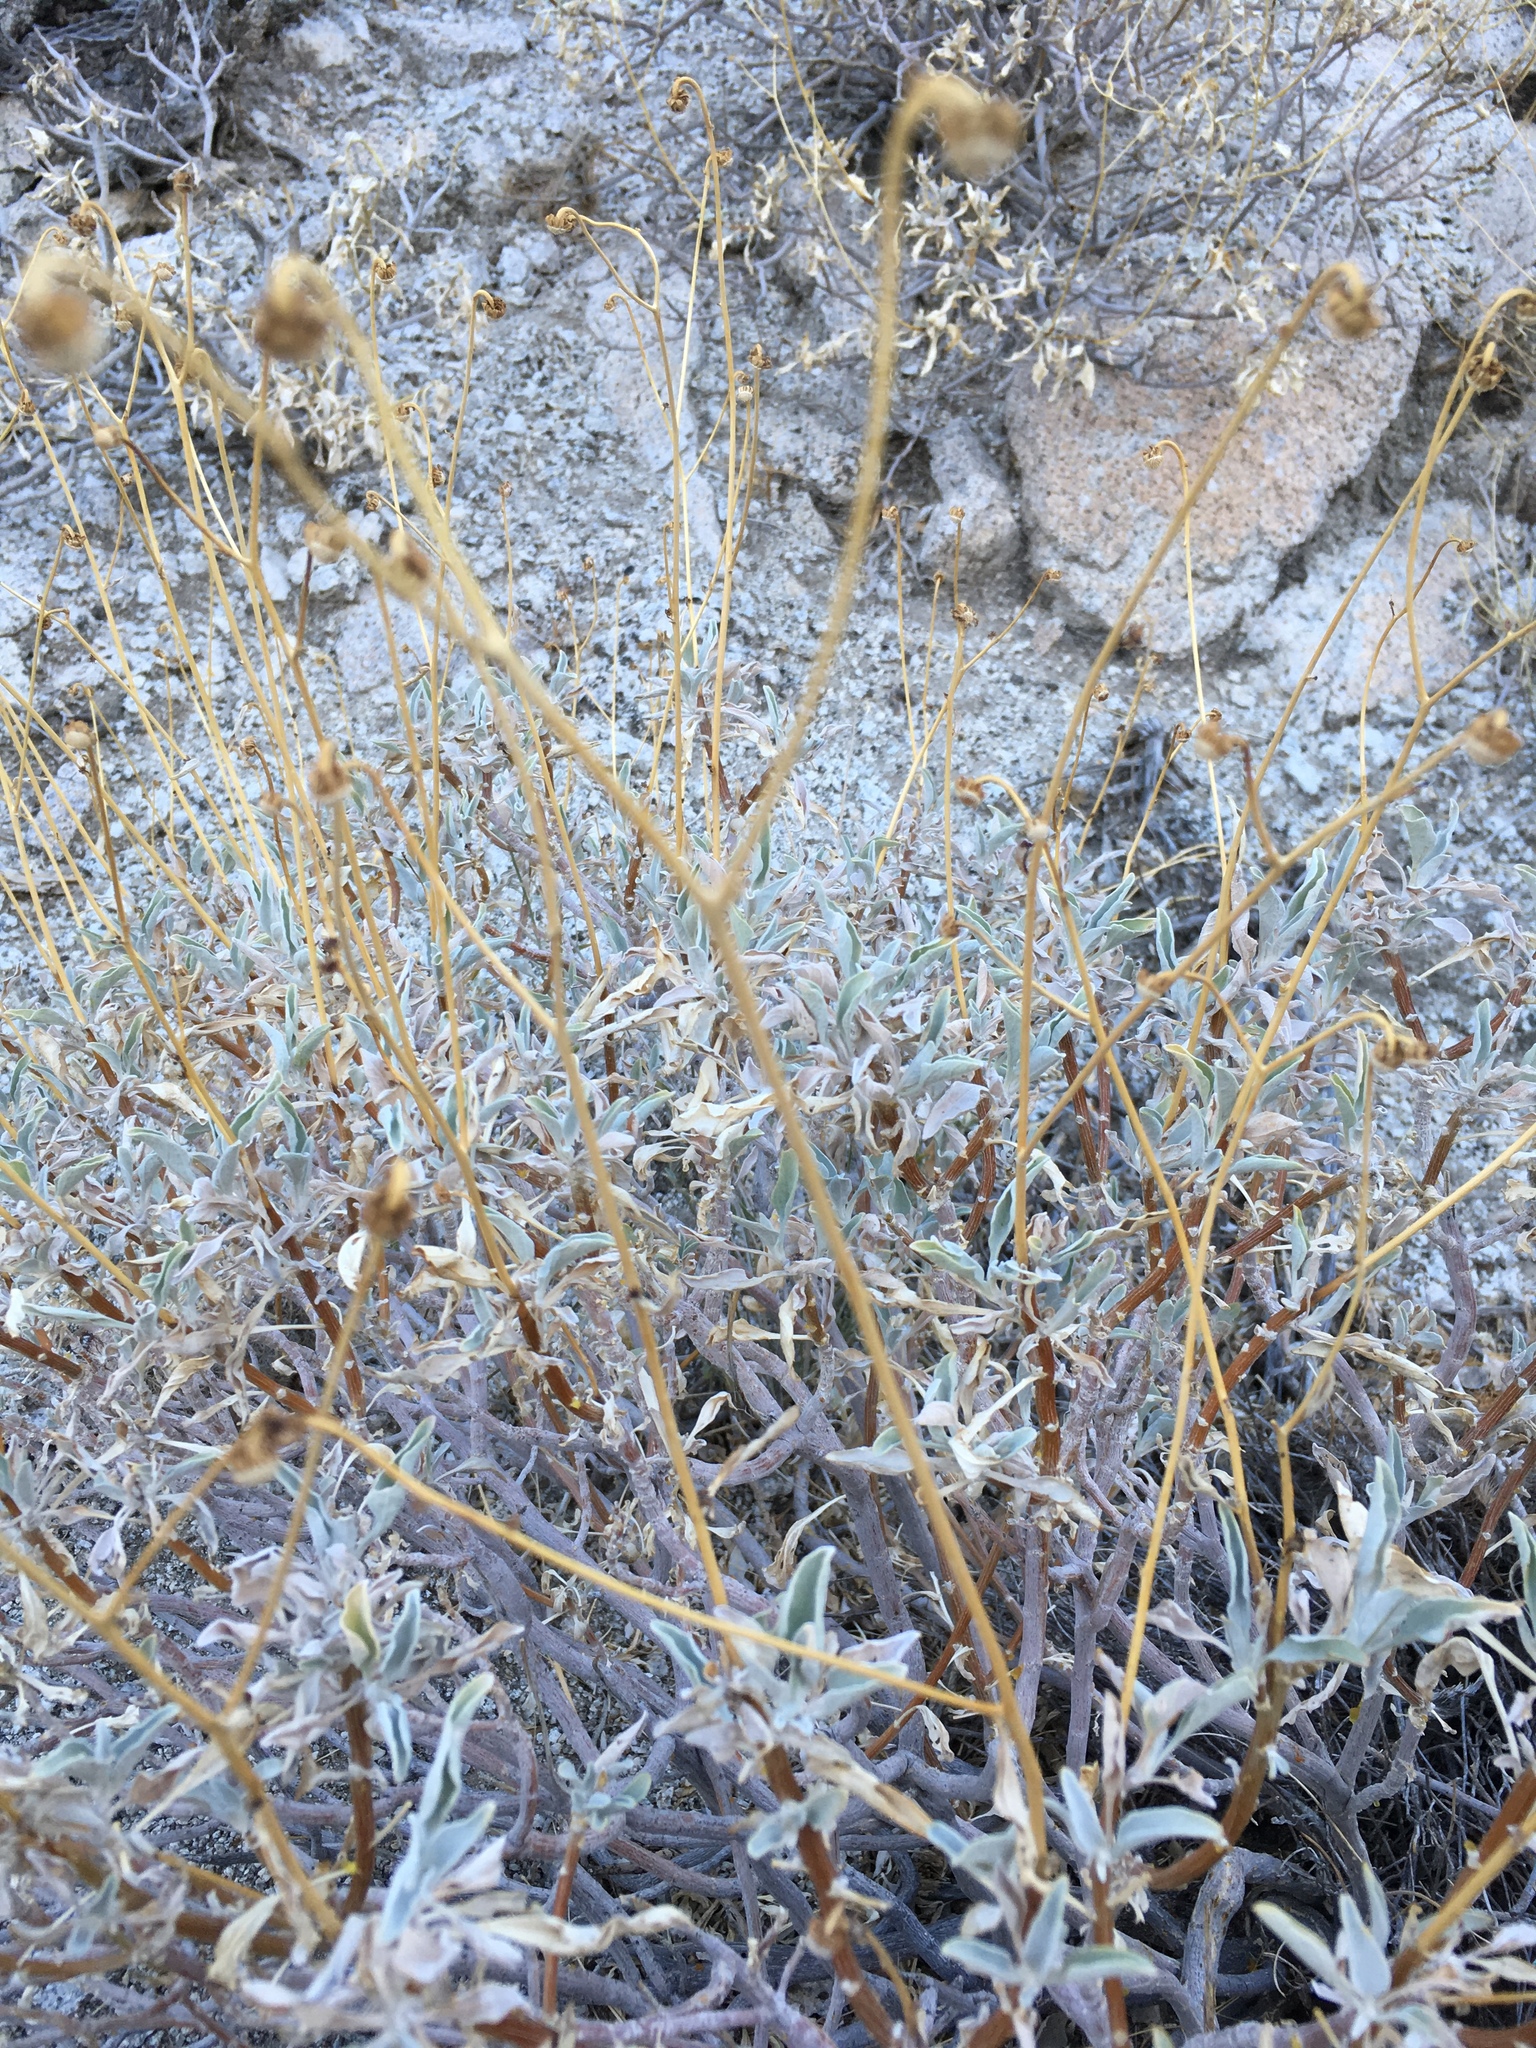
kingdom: Plantae
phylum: Tracheophyta
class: Magnoliopsida
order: Asterales
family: Asteraceae
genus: Encelia
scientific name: Encelia farinosa
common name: Brittlebush
